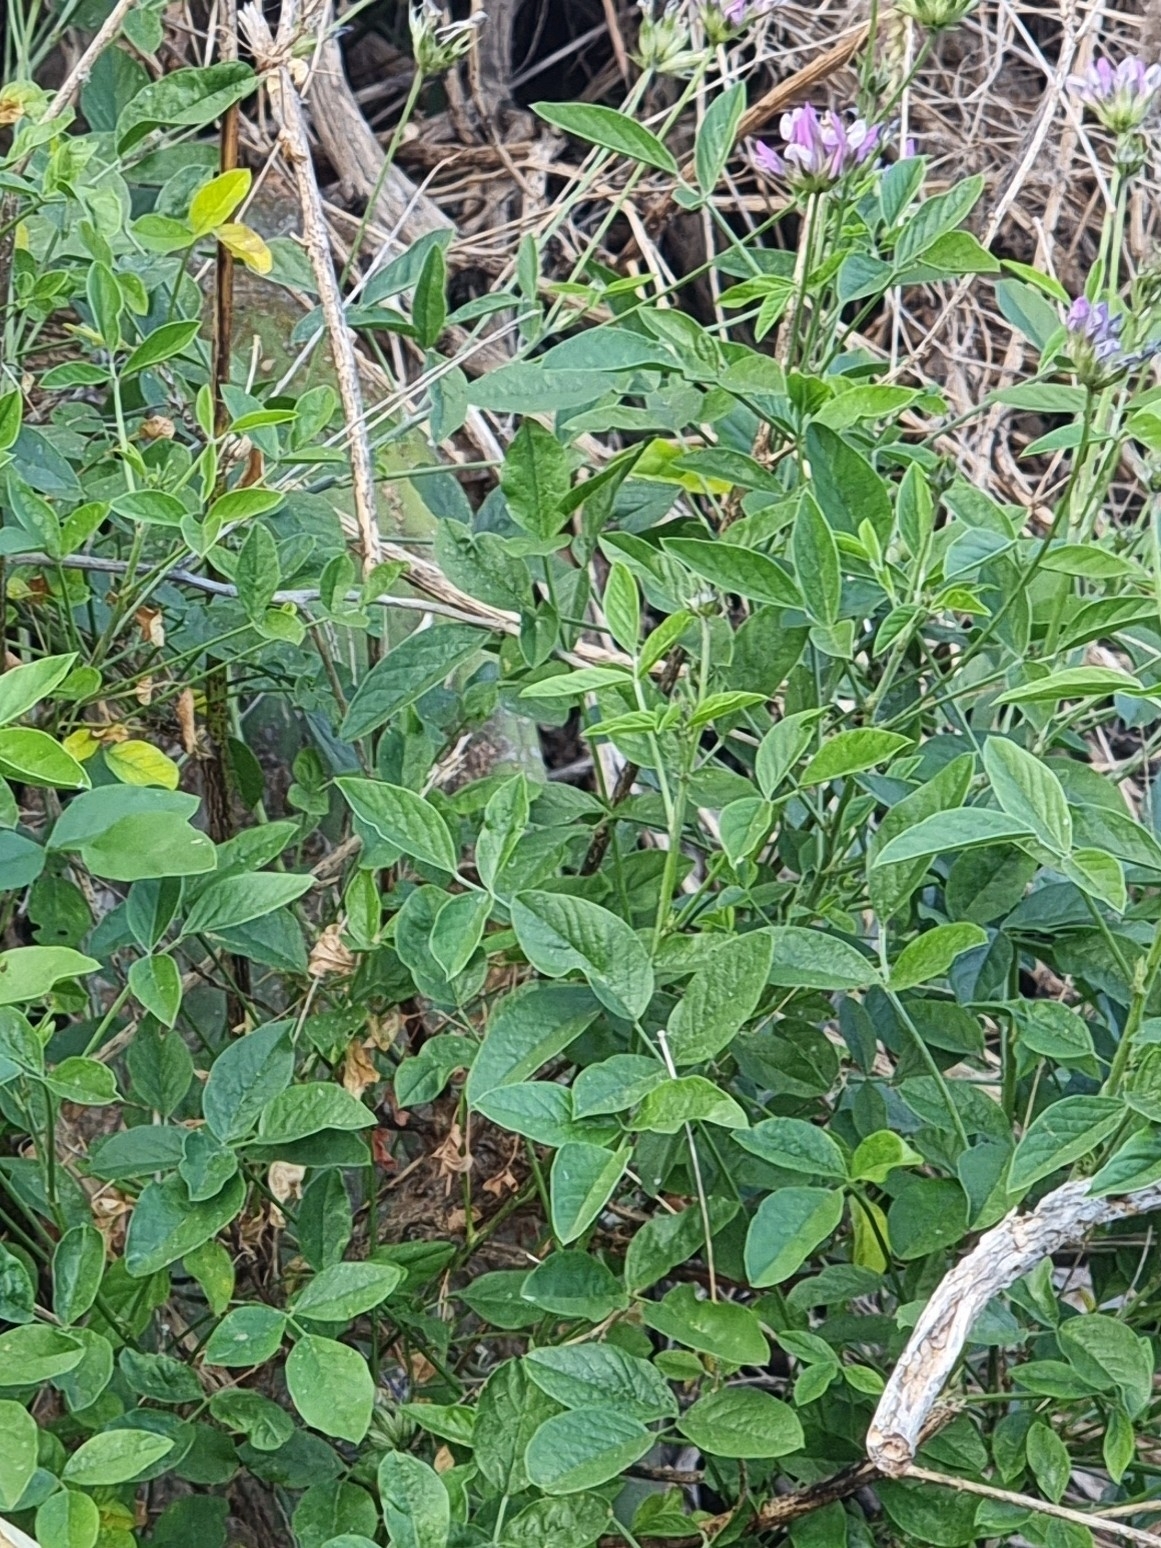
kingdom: Plantae
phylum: Tracheophyta
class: Magnoliopsida
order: Fabales
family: Fabaceae
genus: Bituminaria
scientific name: Bituminaria bituminosa
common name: Arabian pea
